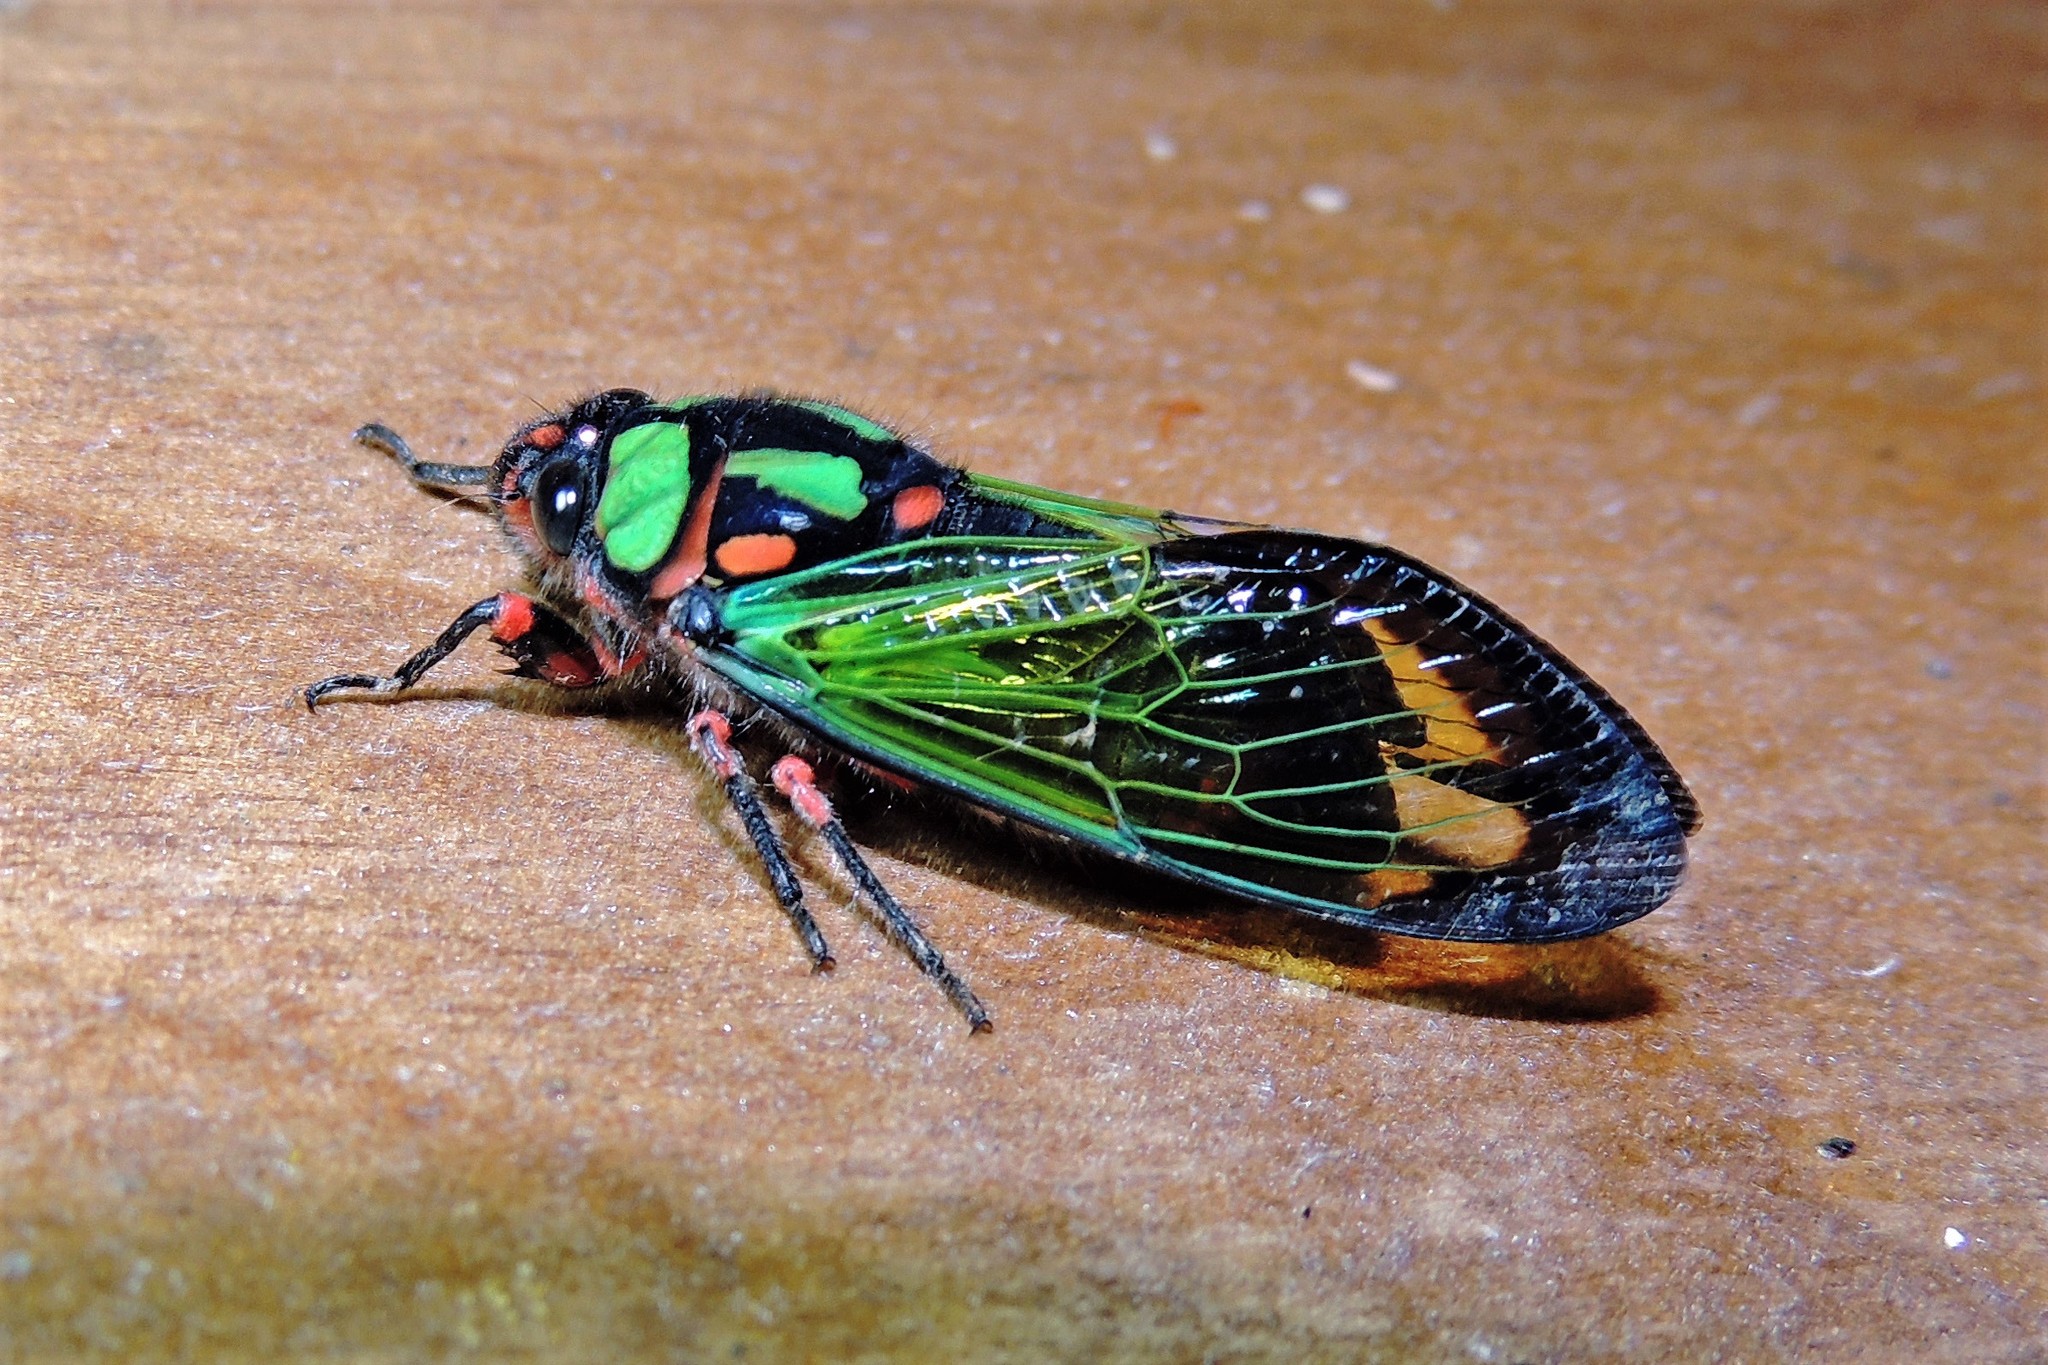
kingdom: Animalia
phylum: Arthropoda
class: Insecta
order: Hemiptera
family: Cicadidae
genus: Carineta
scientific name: Carineta diardi
